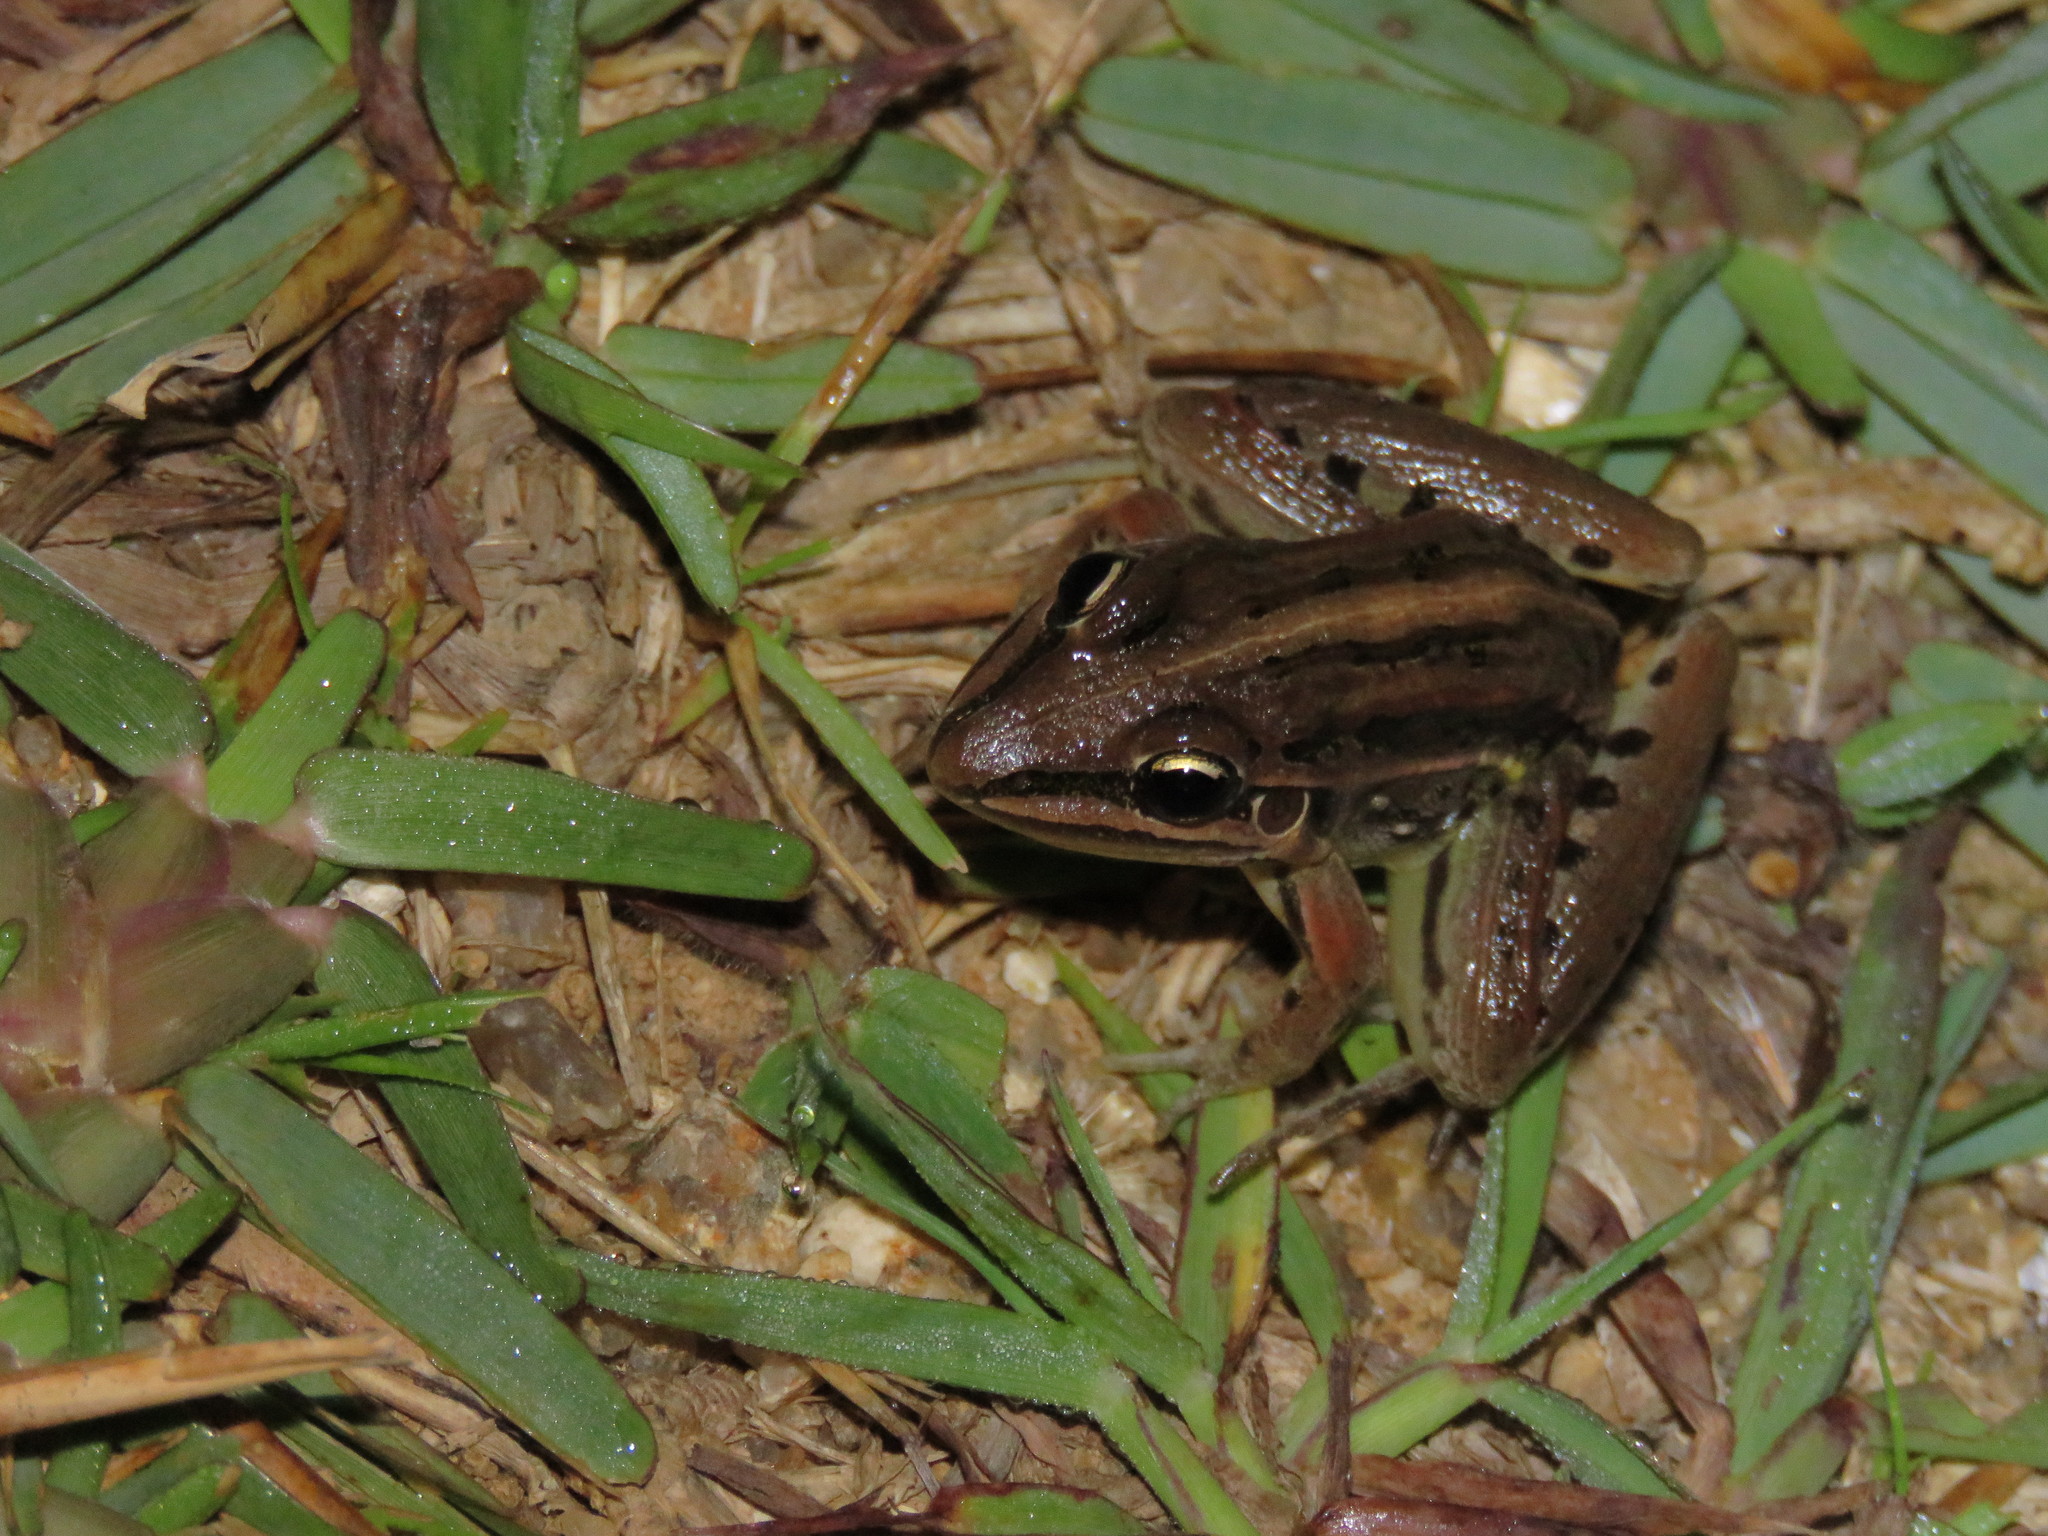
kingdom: Animalia
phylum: Chordata
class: Amphibia
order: Anura
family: Leptodactylidae
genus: Leptodactylus
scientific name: Leptodactylus gracilis
